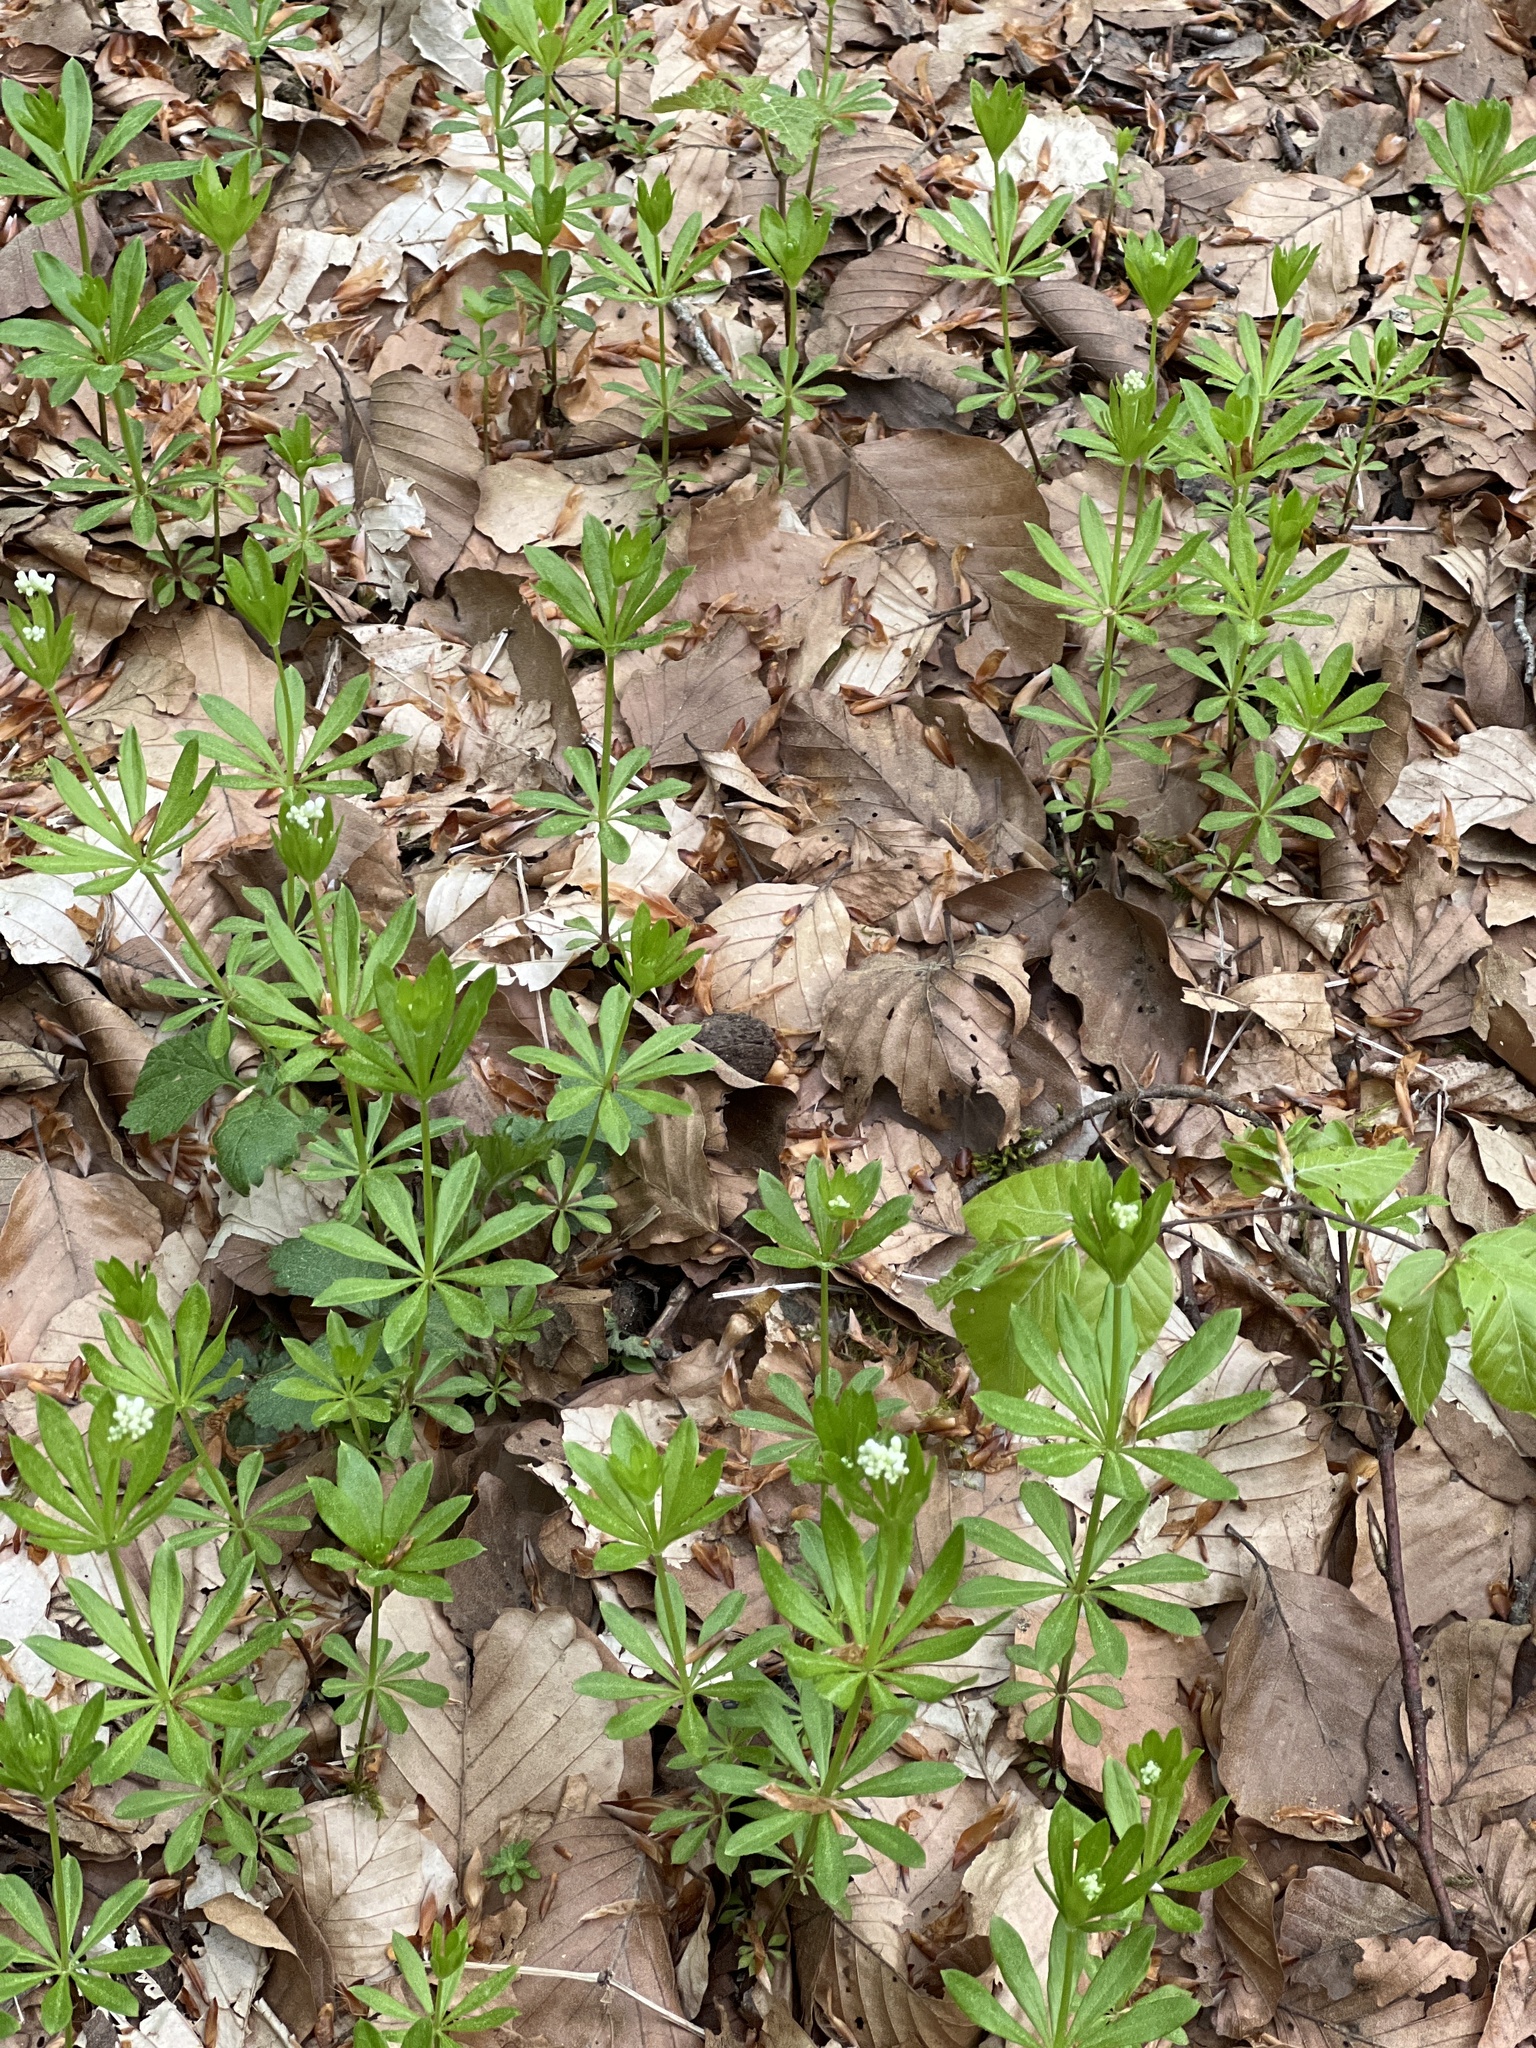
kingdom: Plantae
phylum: Tracheophyta
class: Magnoliopsida
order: Gentianales
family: Rubiaceae
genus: Galium
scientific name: Galium odoratum
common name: Sweet woodruff
